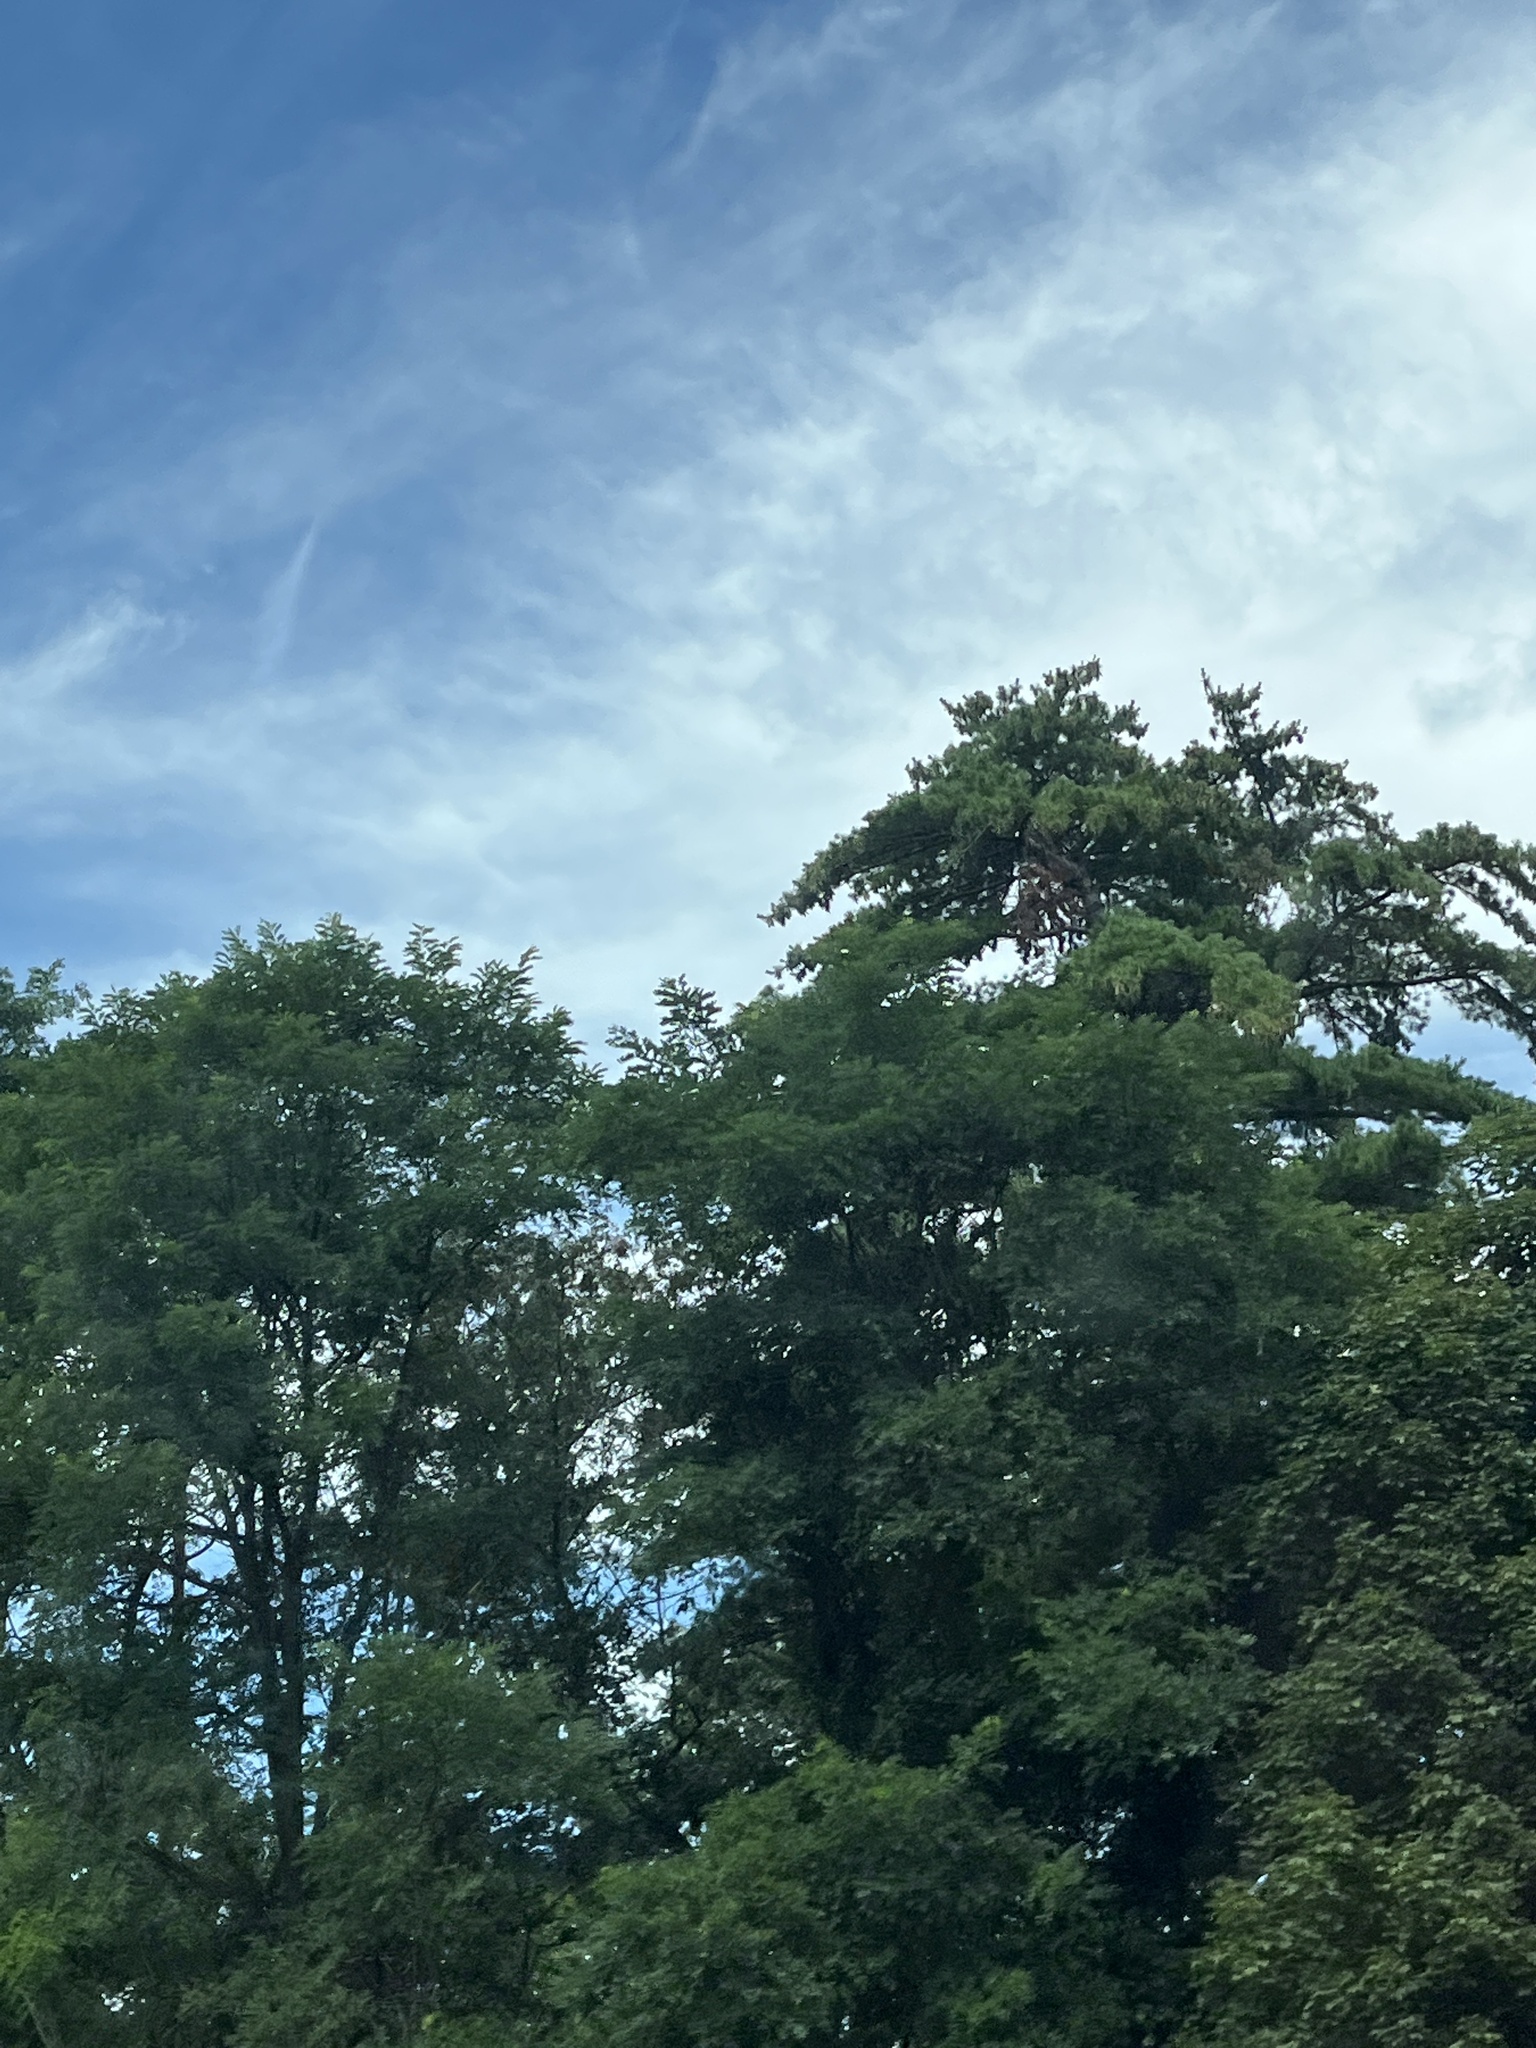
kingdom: Plantae
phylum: Tracheophyta
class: Pinopsida
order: Pinales
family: Pinaceae
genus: Pinus
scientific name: Pinus strobus
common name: Weymouth pine
